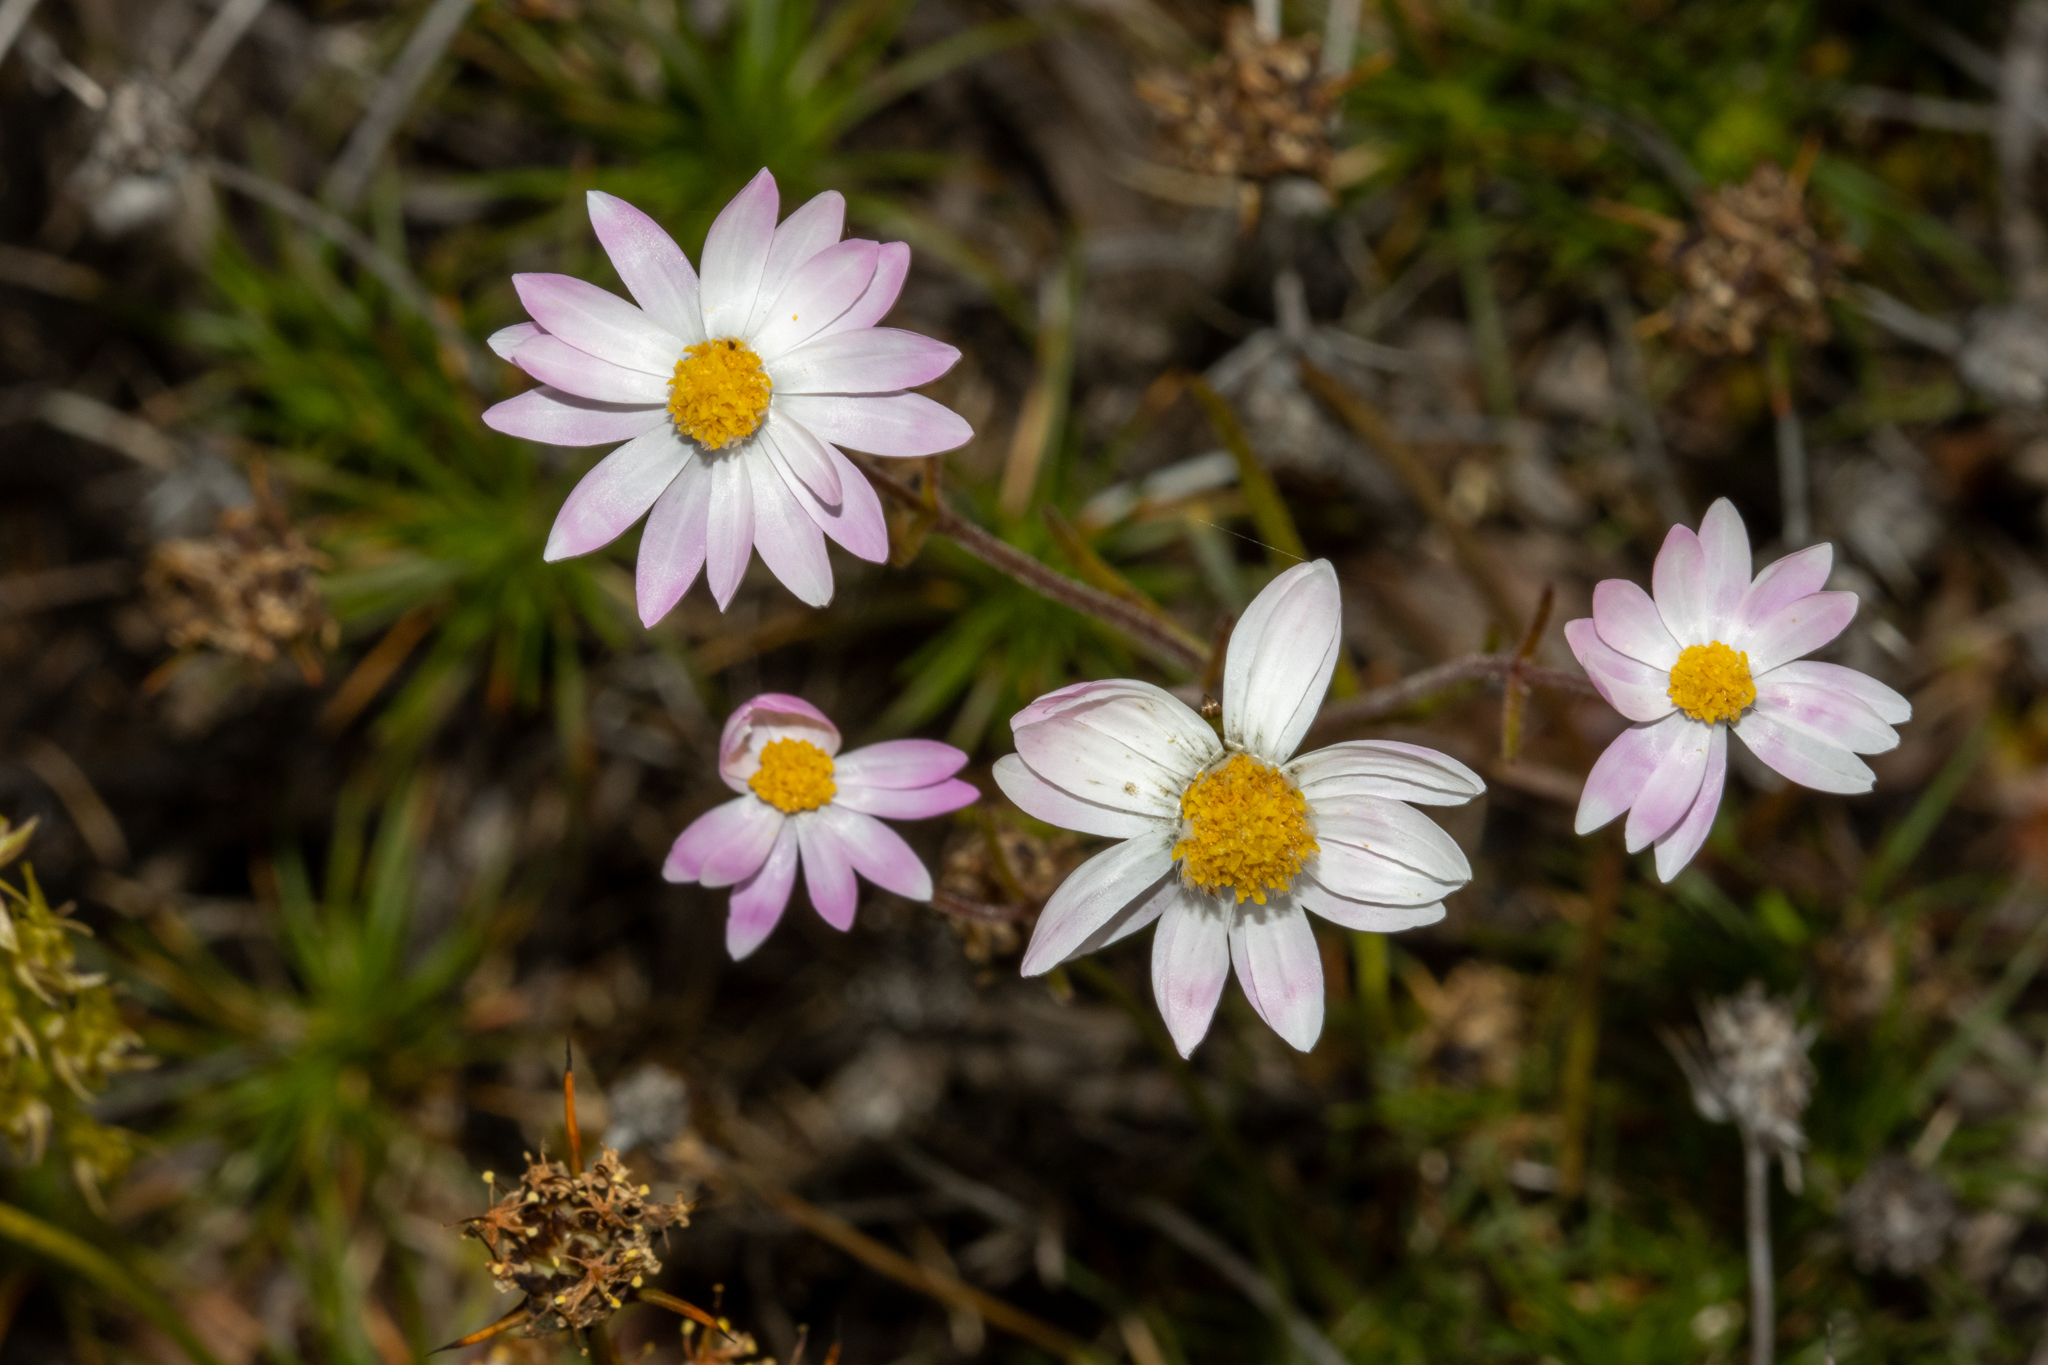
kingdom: Plantae
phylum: Tracheophyta
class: Magnoliopsida
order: Asterales
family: Asteraceae
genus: Lawrencella
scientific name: Lawrencella rosea
